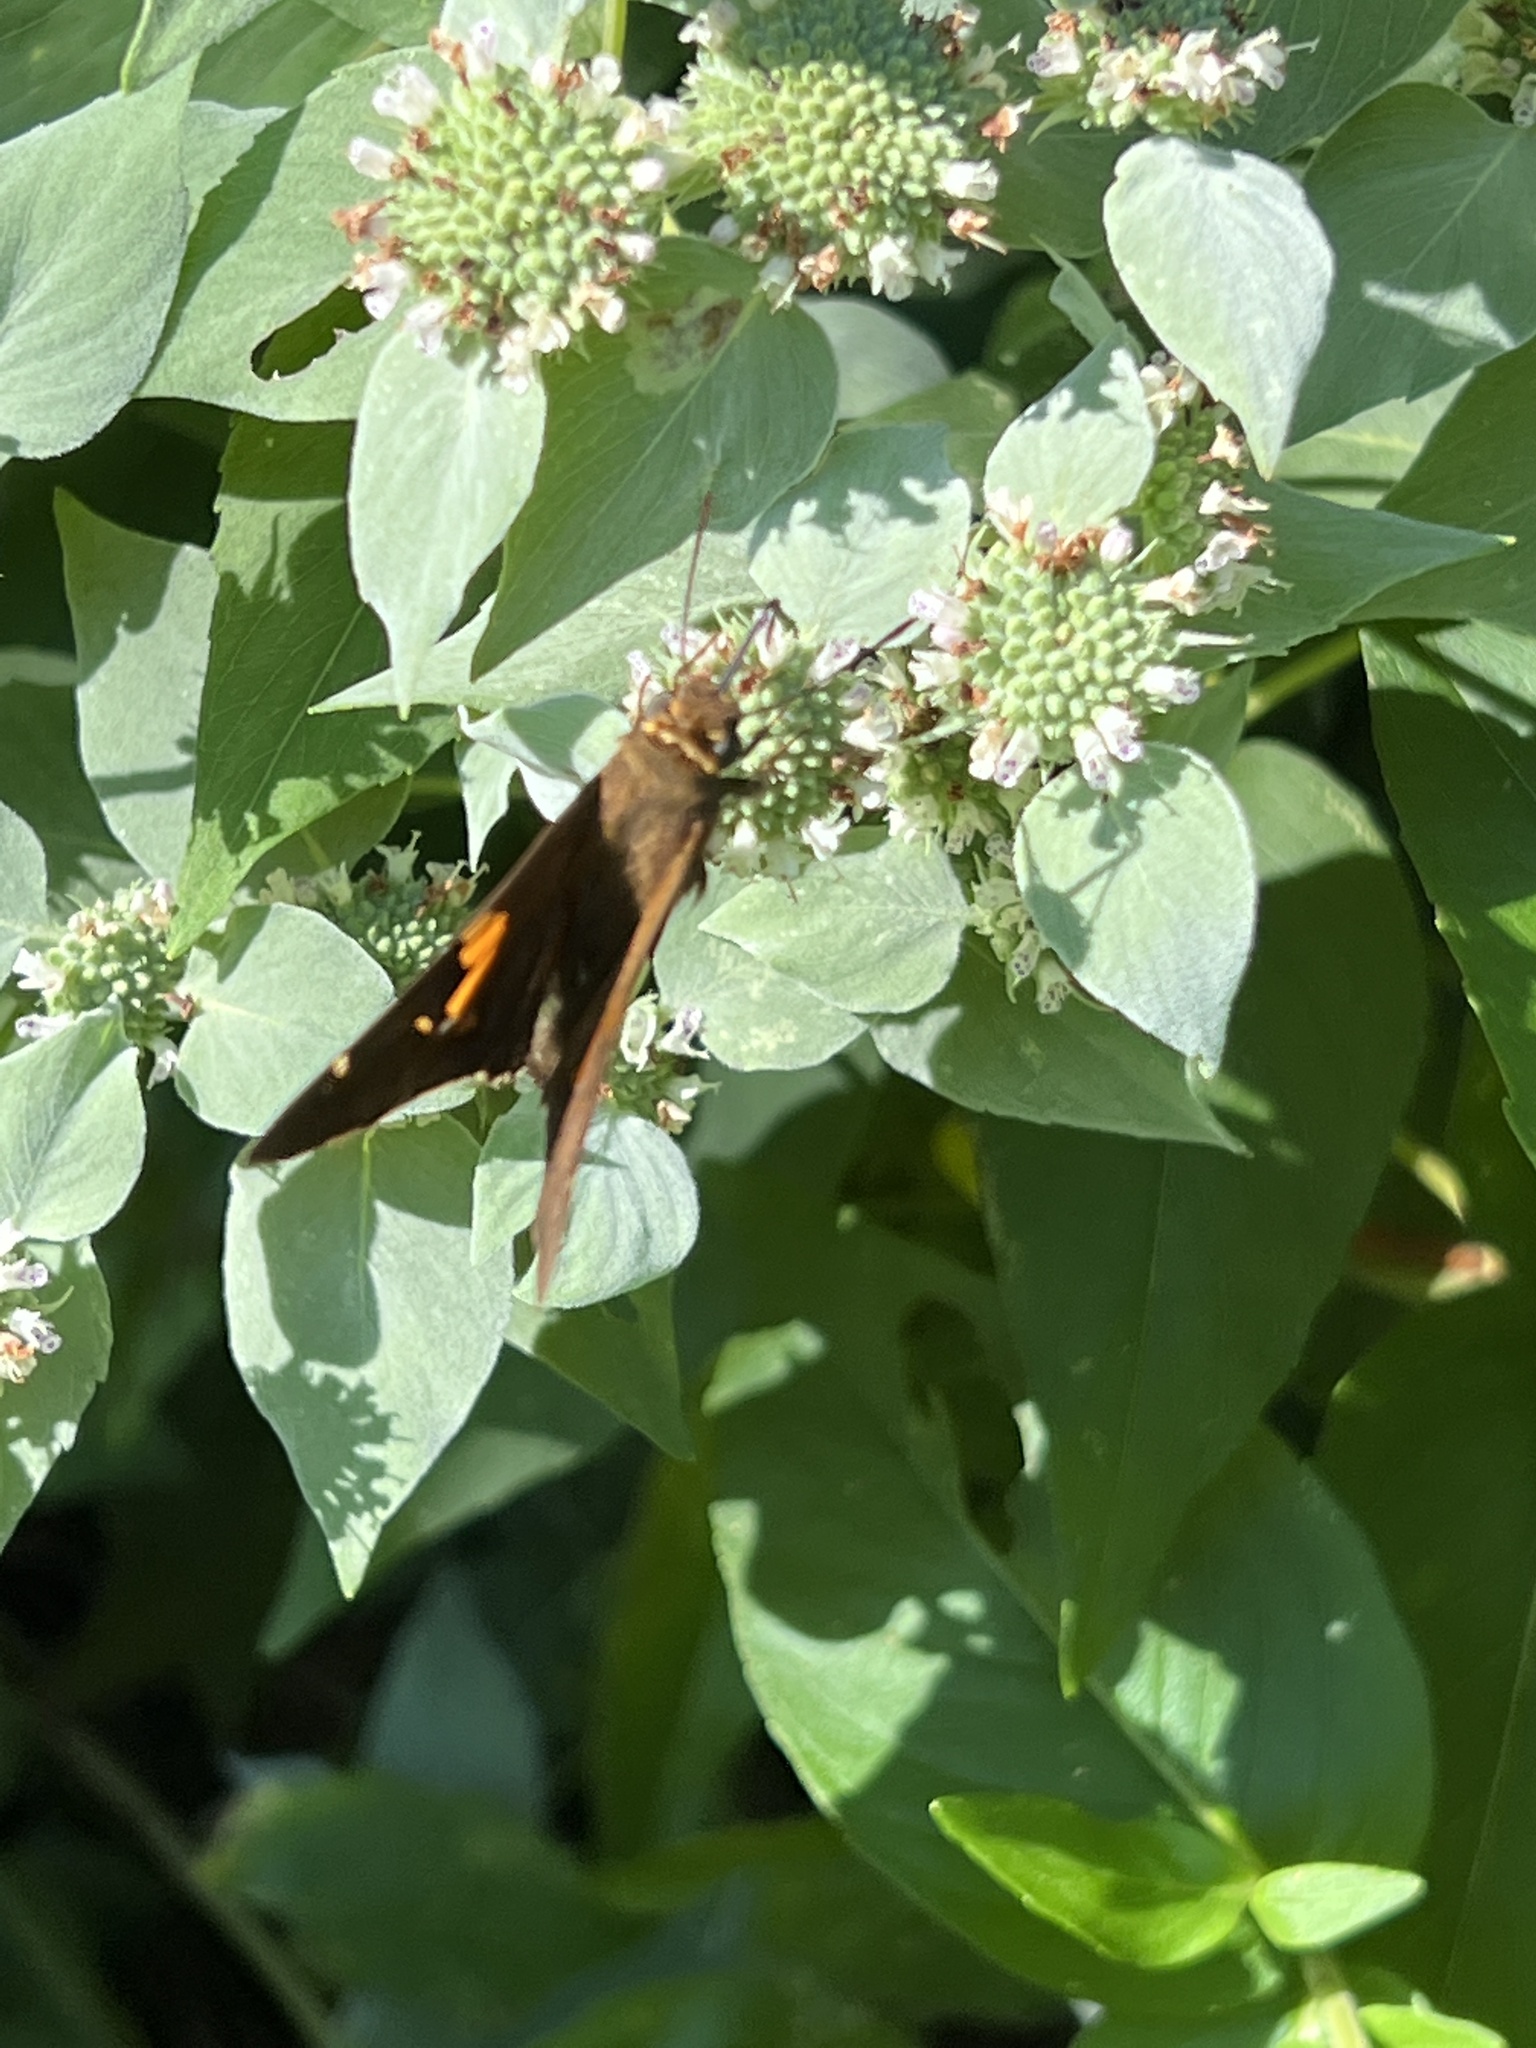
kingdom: Animalia
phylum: Arthropoda
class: Insecta
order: Lepidoptera
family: Hesperiidae
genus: Epargyreus
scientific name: Epargyreus clarus
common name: Silver-spotted skipper
